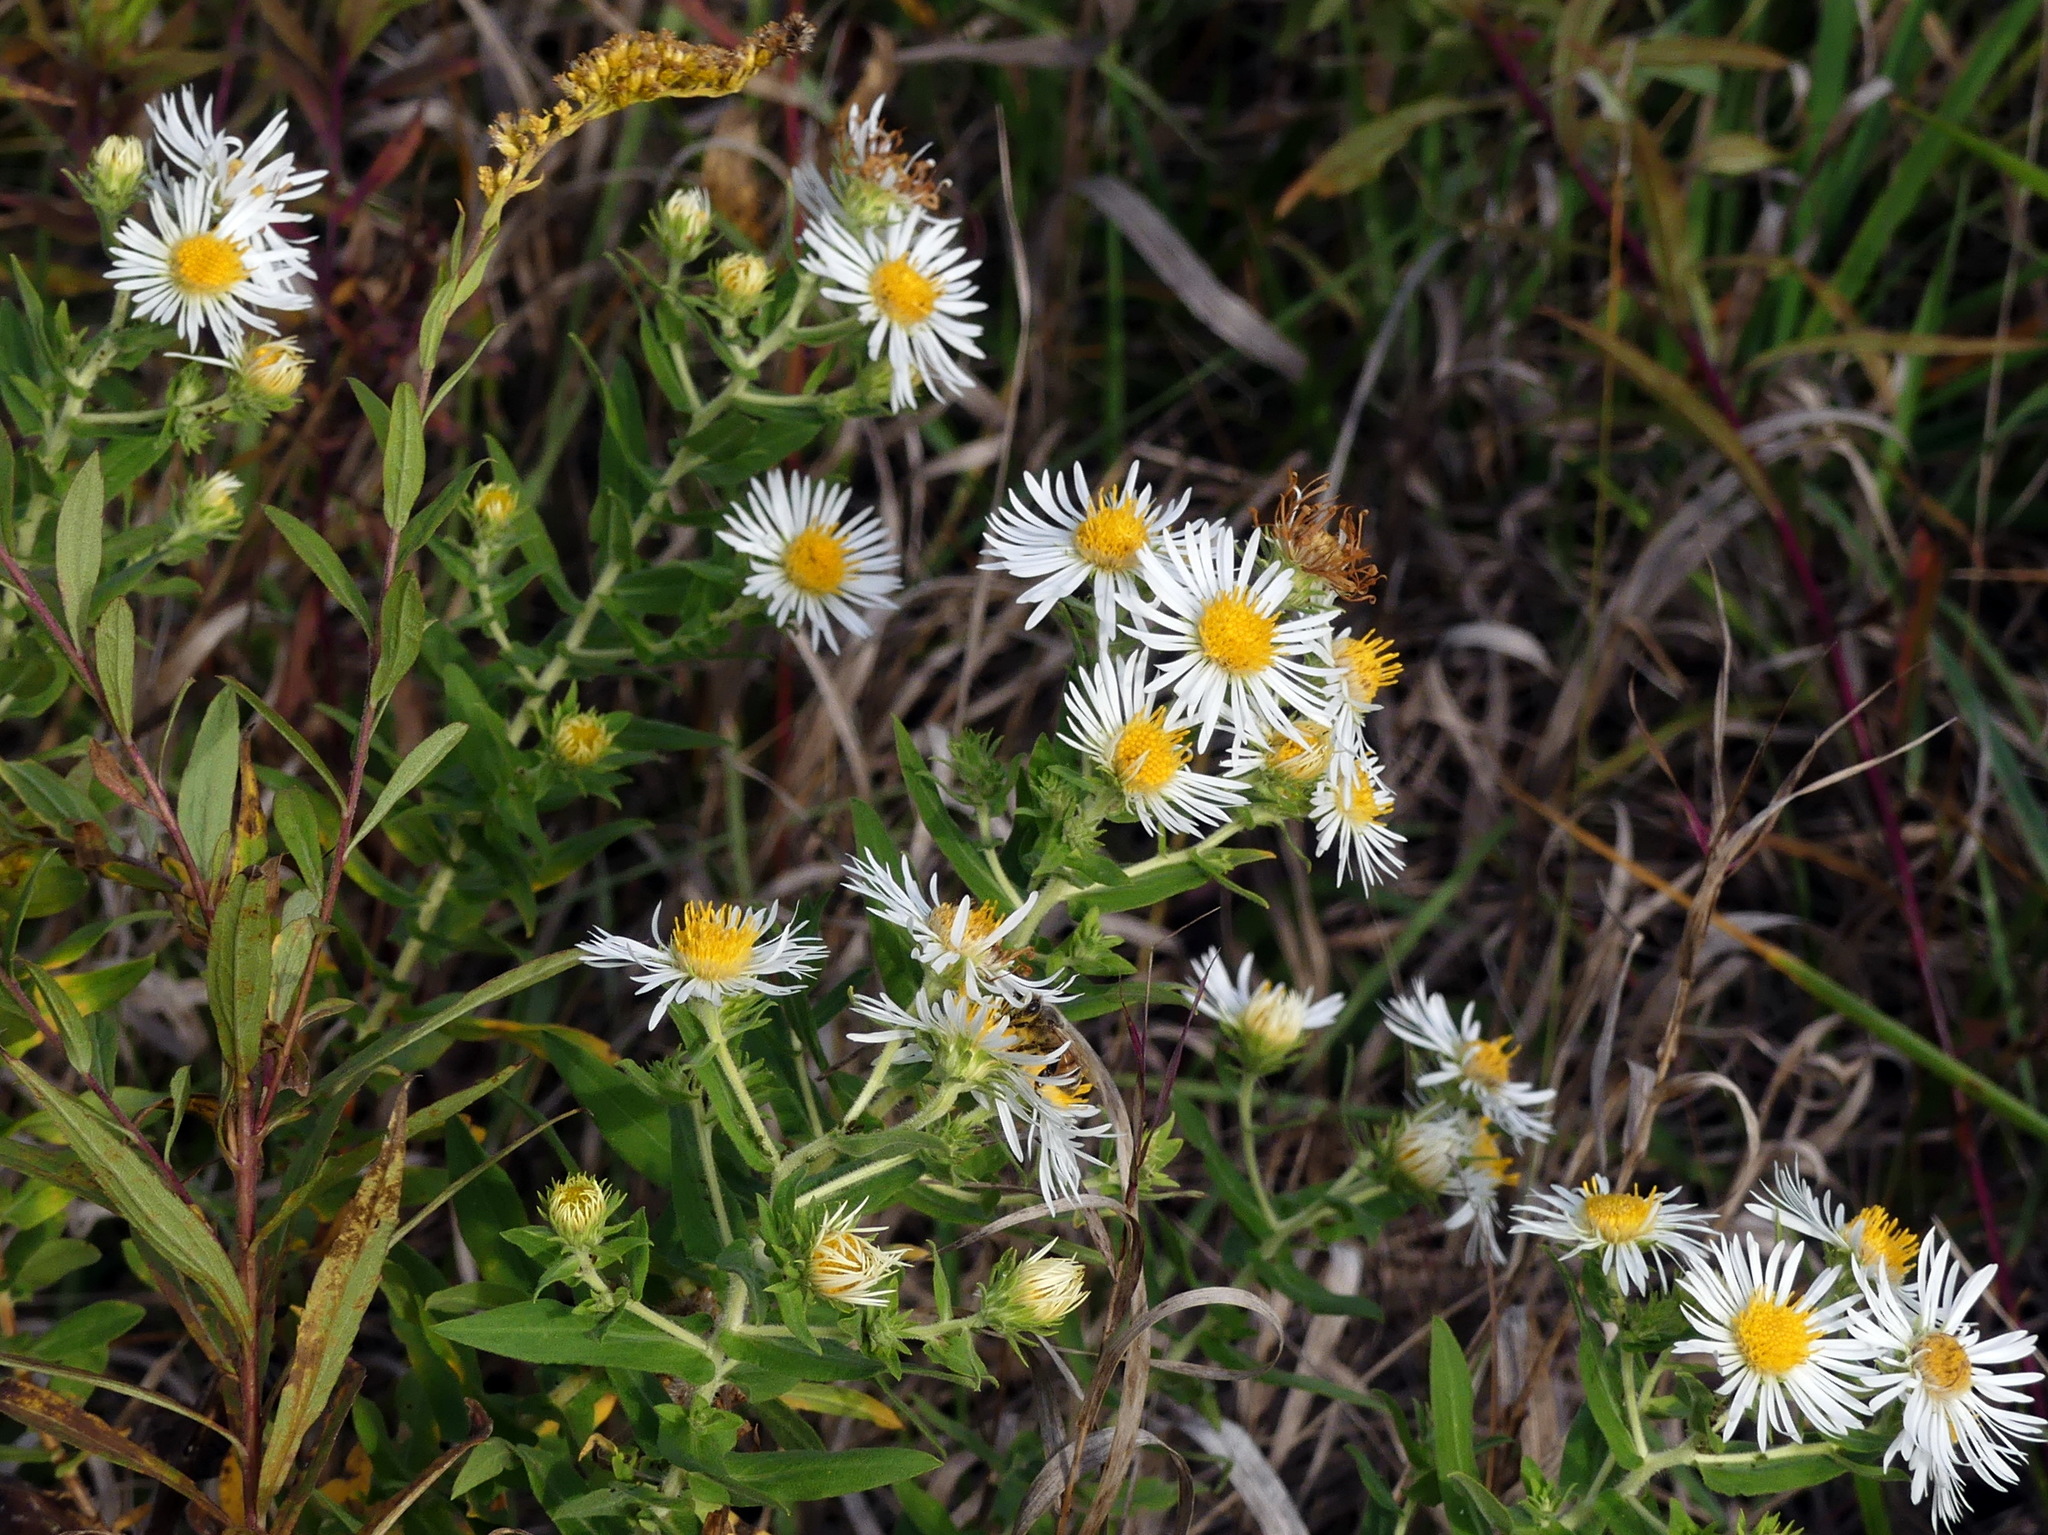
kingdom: Plantae
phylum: Tracheophyta
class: Magnoliopsida
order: Asterales
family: Asteraceae
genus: Symphyotrichum
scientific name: Symphyotrichum firmum
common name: Shining aster
